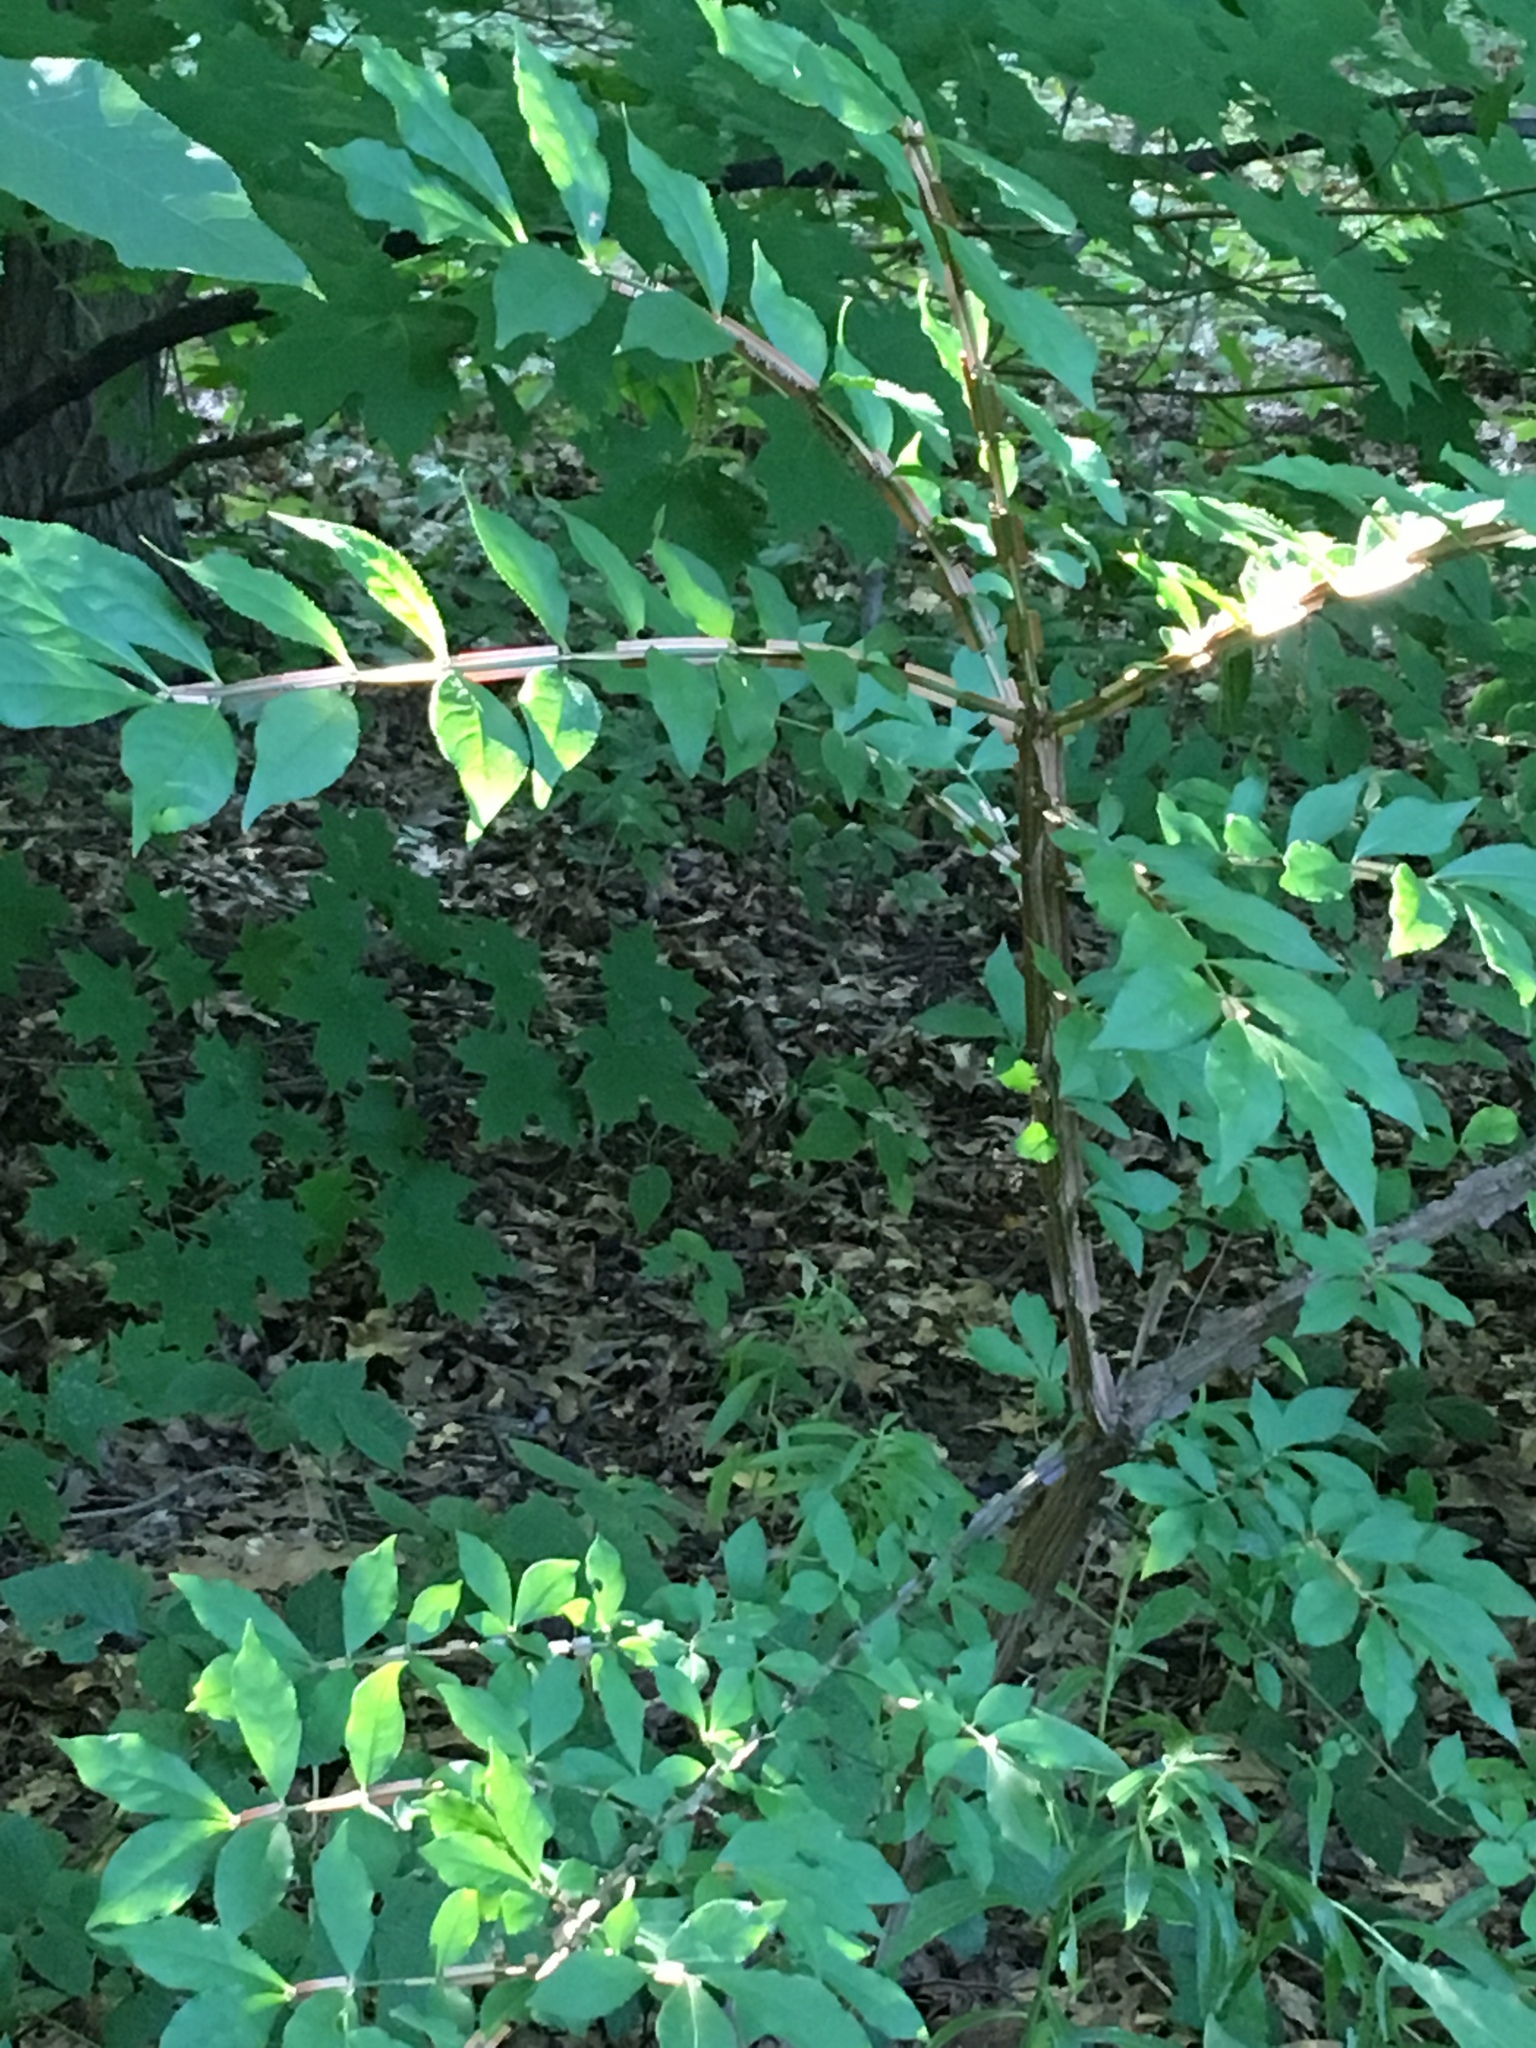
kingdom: Plantae
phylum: Tracheophyta
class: Magnoliopsida
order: Celastrales
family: Celastraceae
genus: Euonymus
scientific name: Euonymus alatus
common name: Winged euonymus
